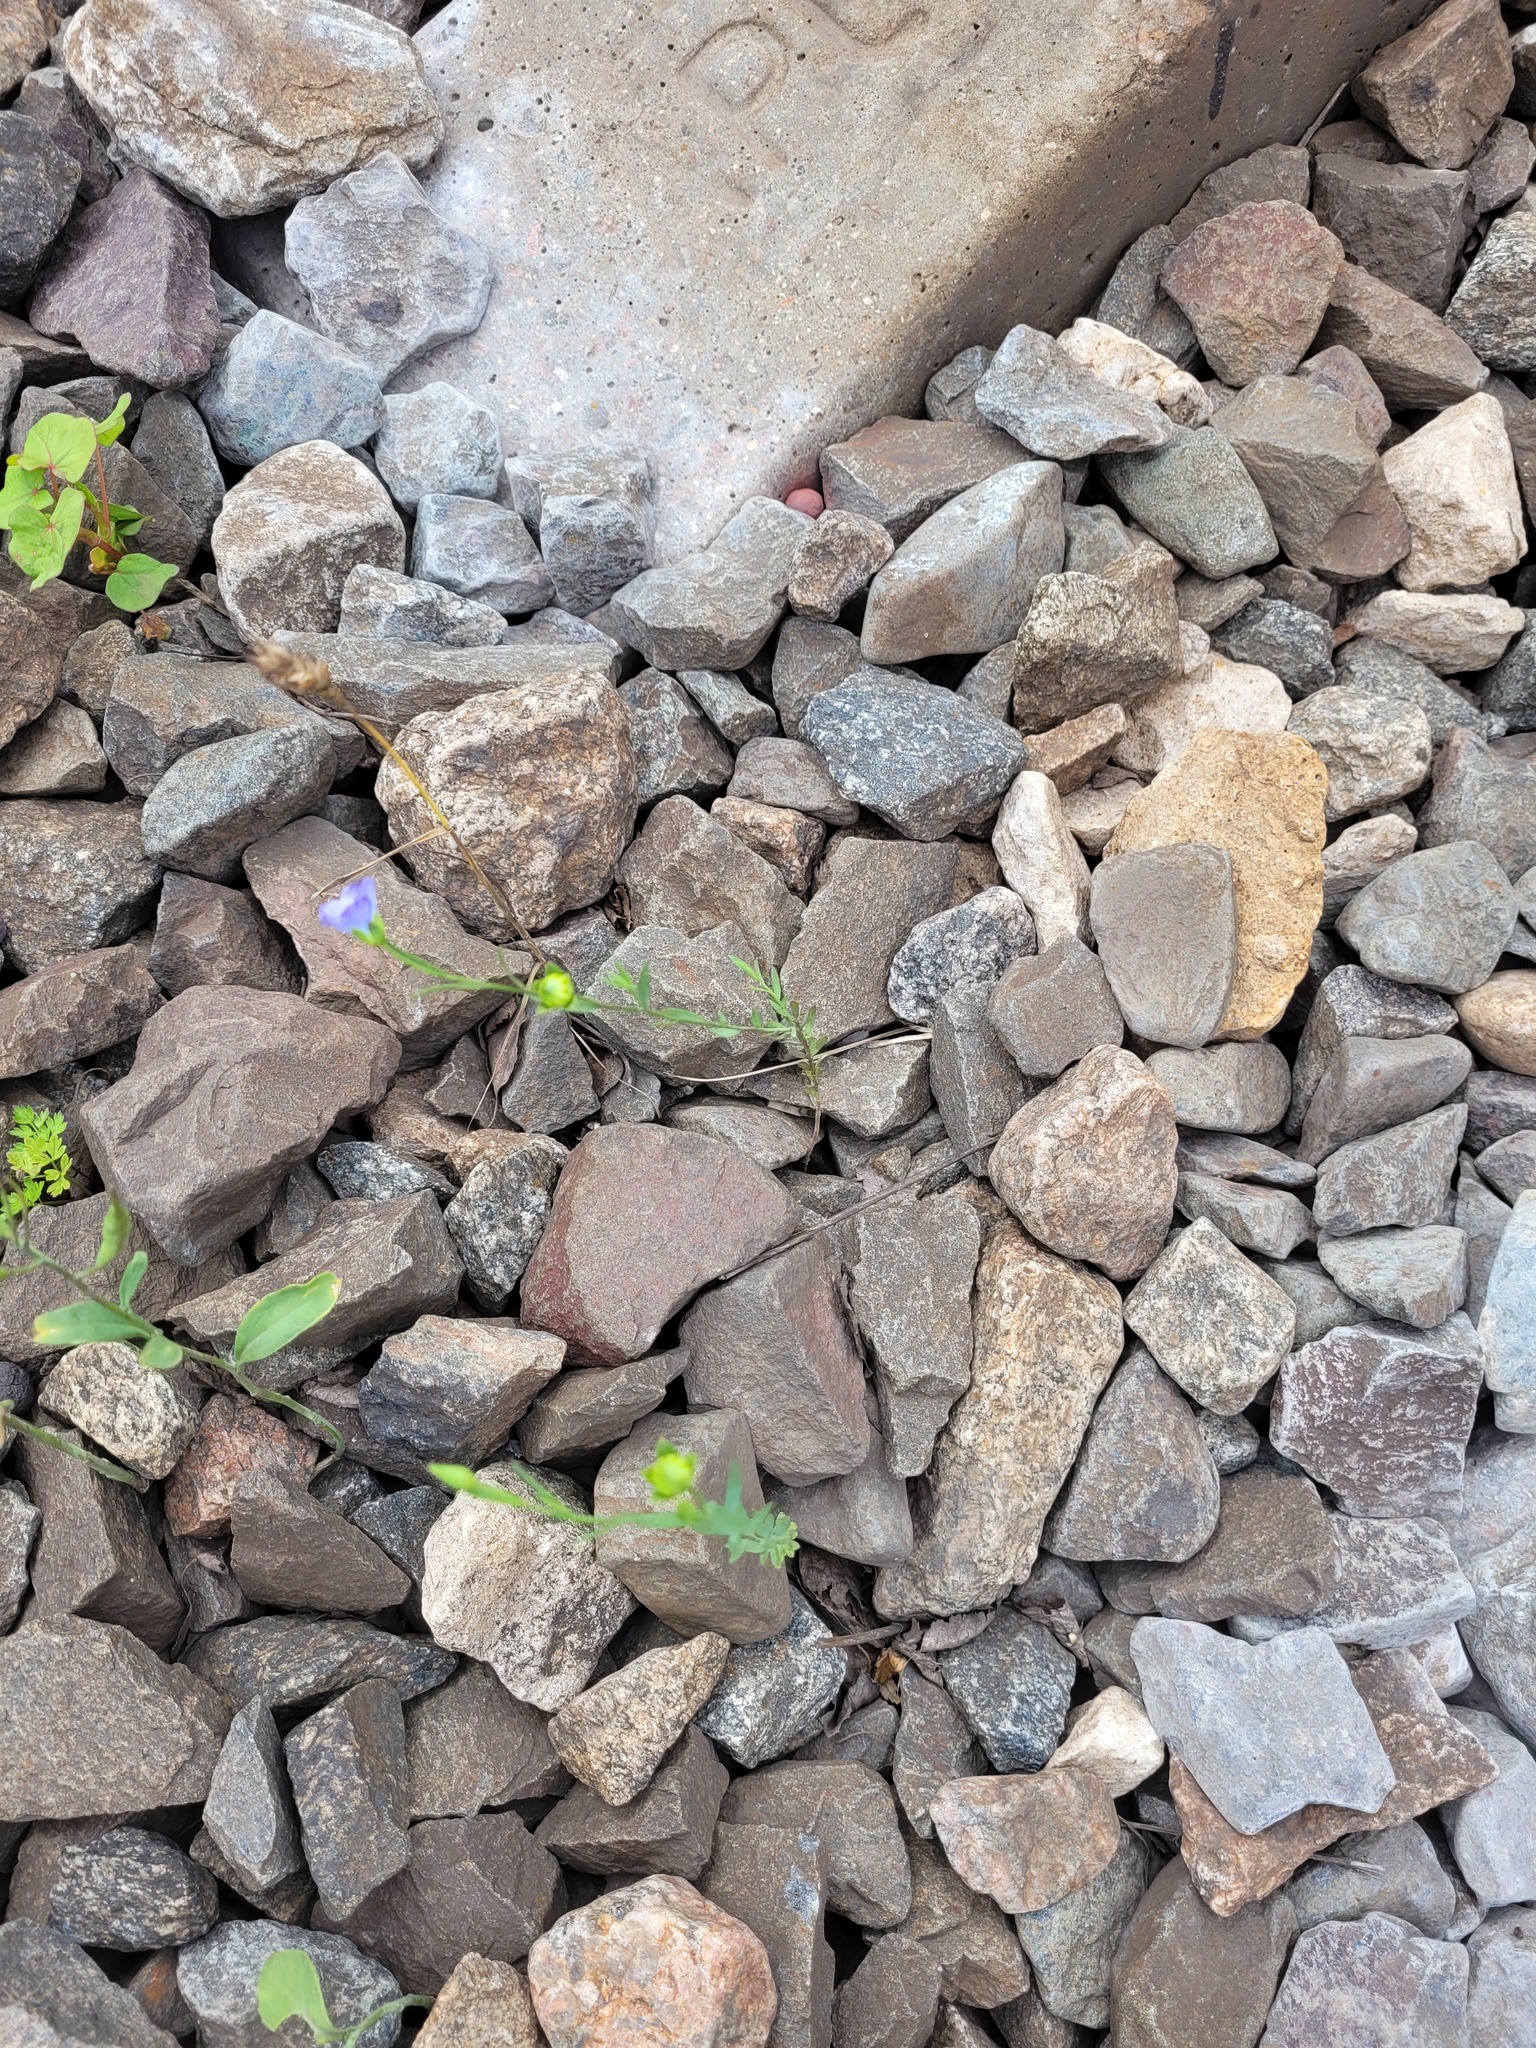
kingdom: Plantae
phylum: Tracheophyta
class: Magnoliopsida
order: Malpighiales
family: Linaceae
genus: Linum
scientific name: Linum usitatissimum
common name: Flax
